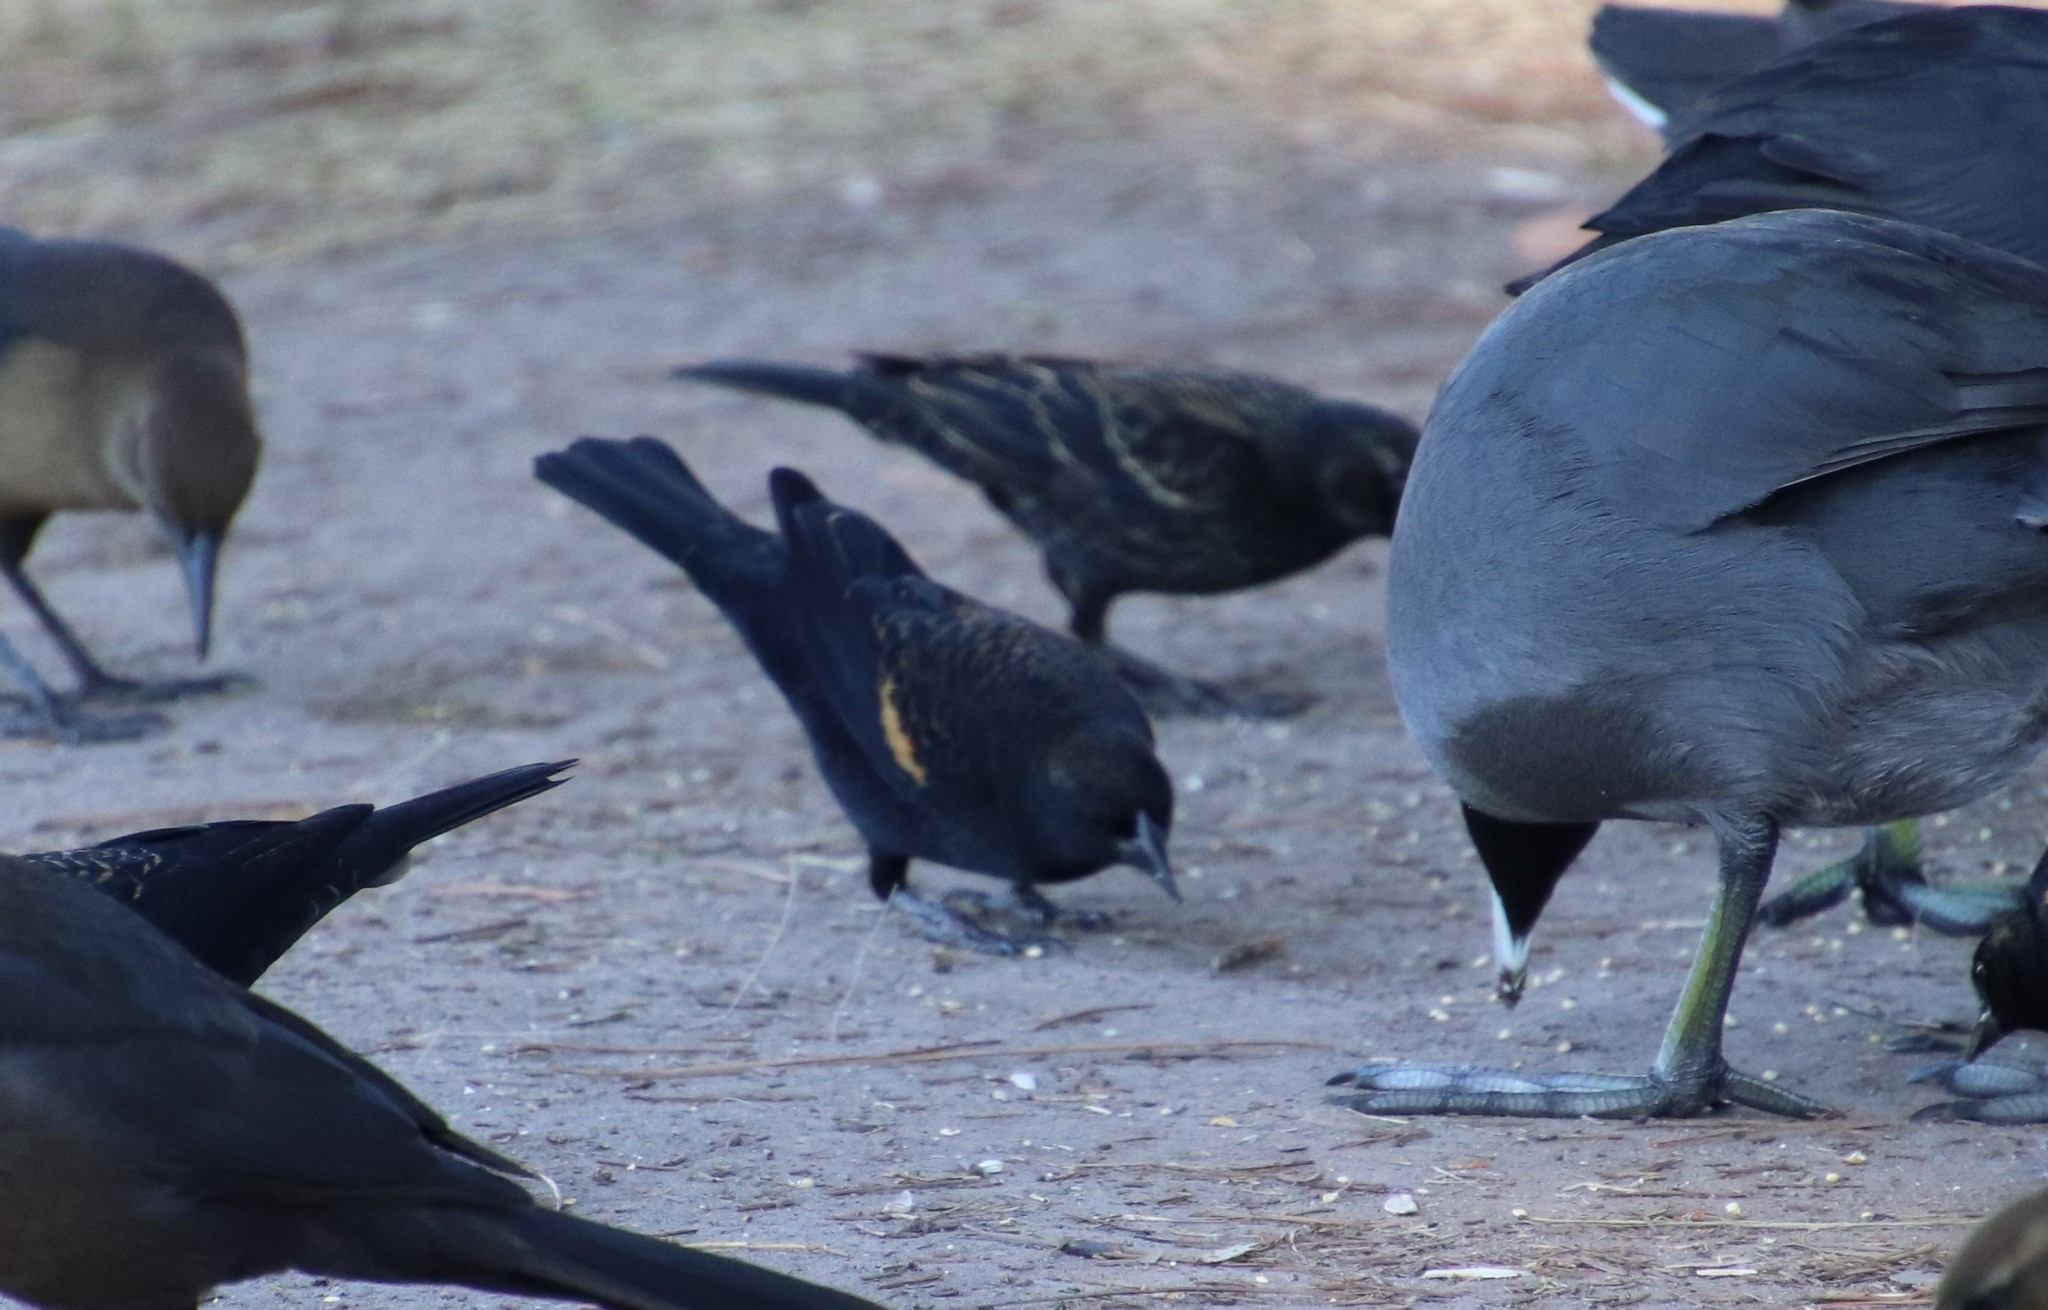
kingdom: Animalia
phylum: Chordata
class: Aves
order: Passeriformes
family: Icteridae
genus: Agelaius
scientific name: Agelaius phoeniceus
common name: Red-winged blackbird
